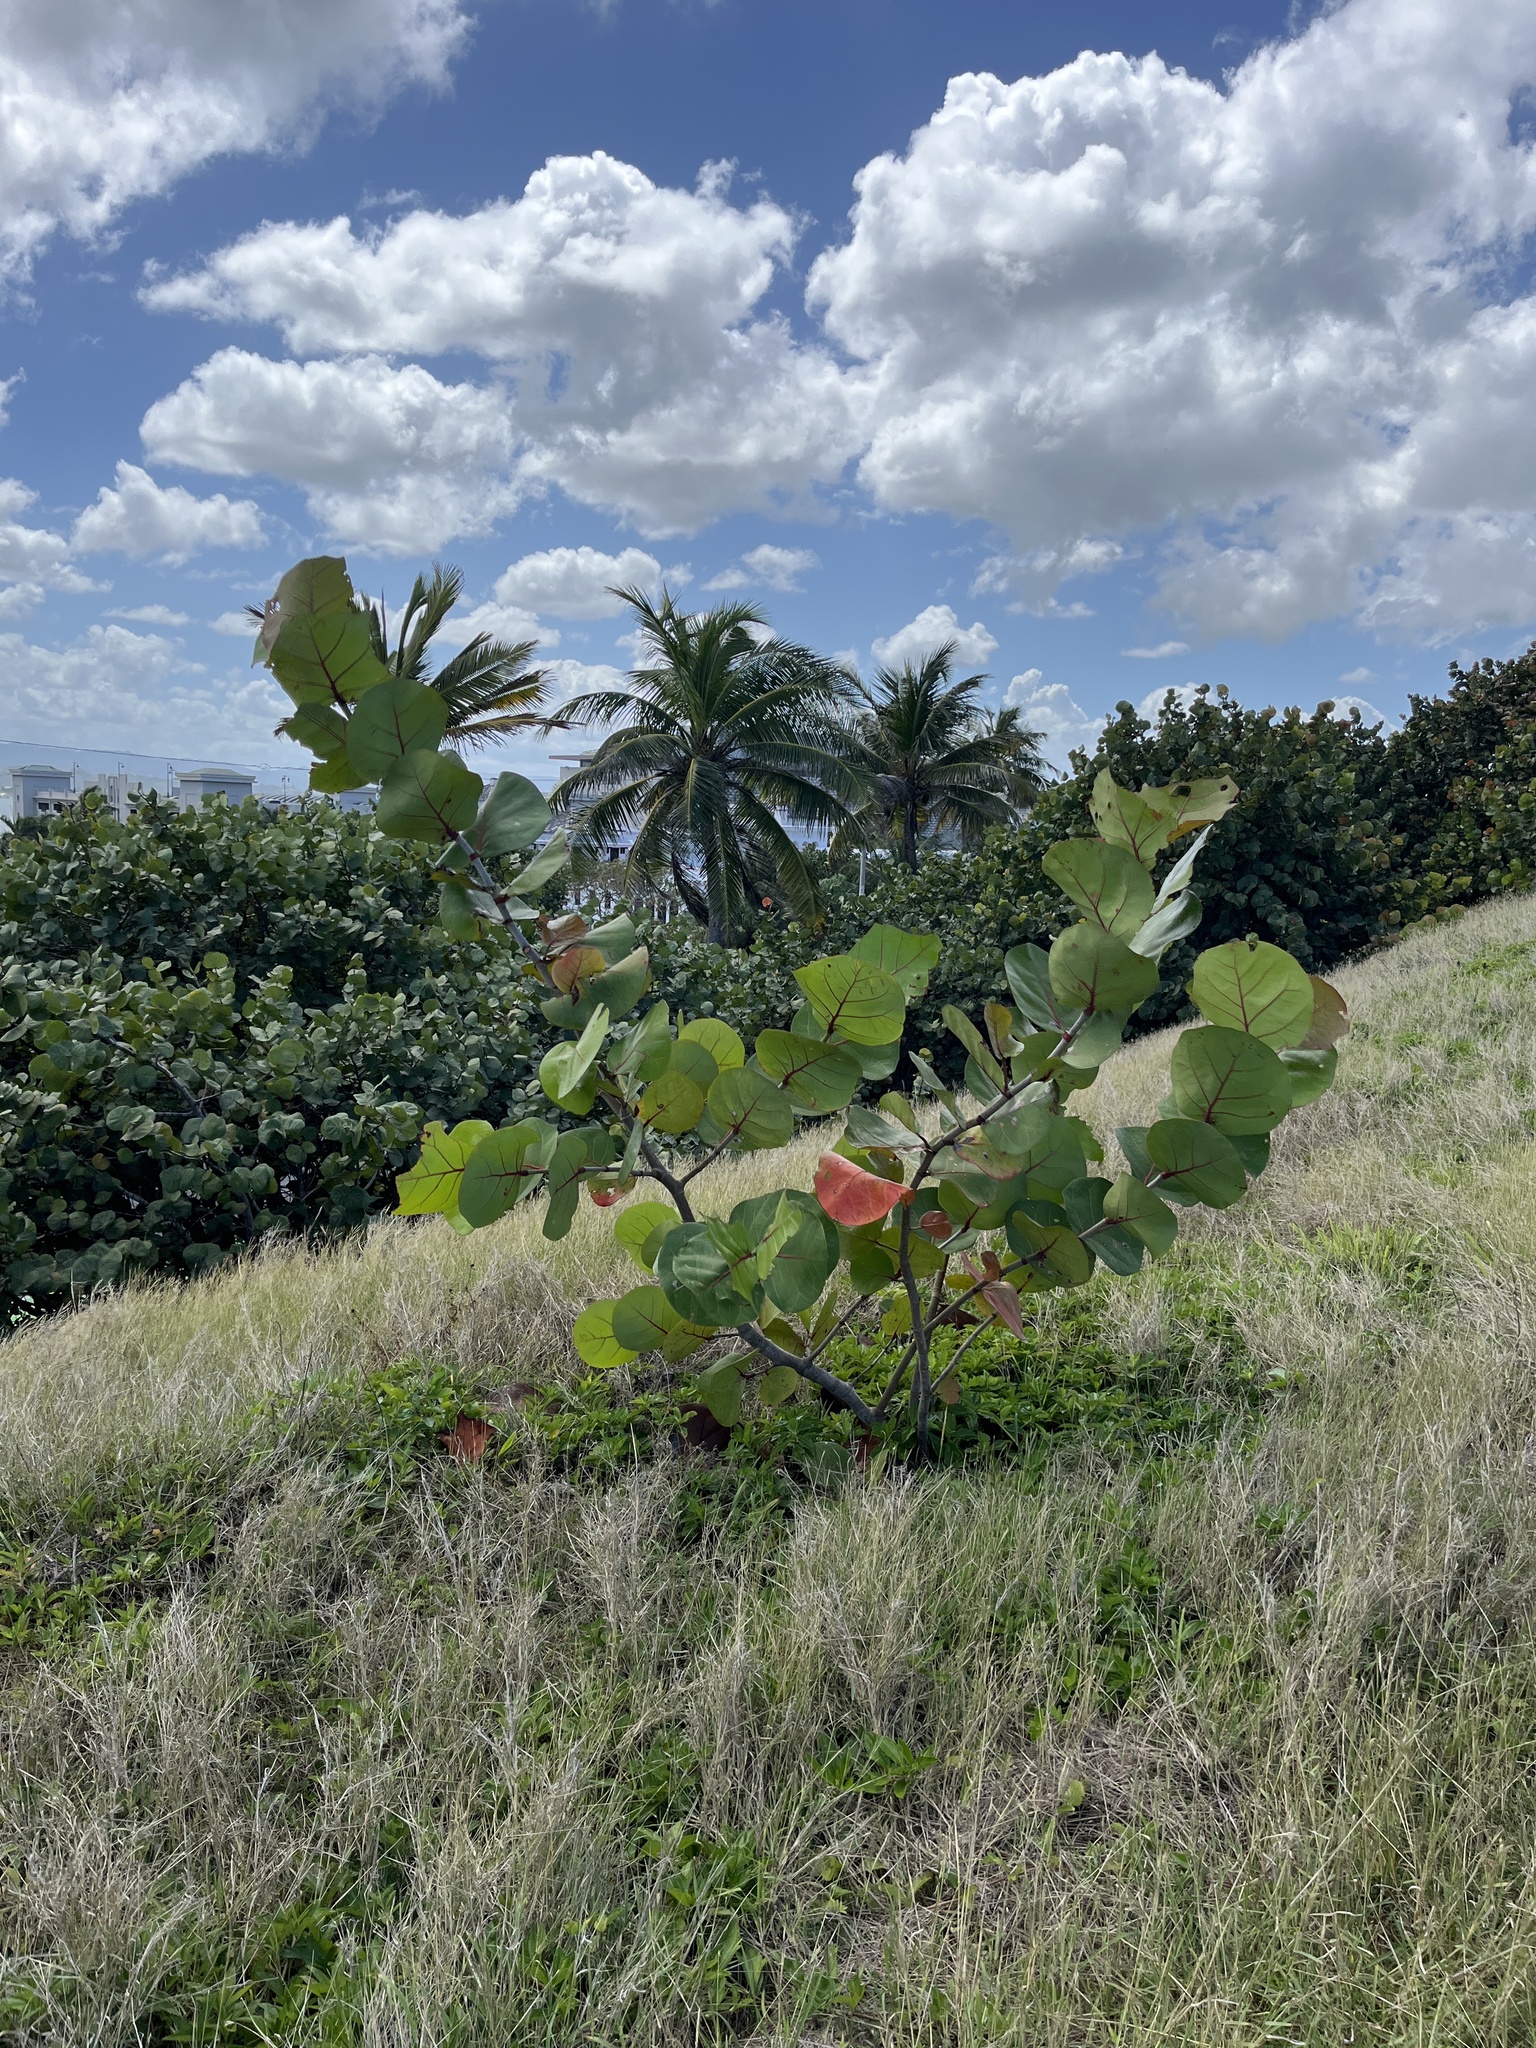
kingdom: Plantae
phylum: Tracheophyta
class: Magnoliopsida
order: Caryophyllales
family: Polygonaceae
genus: Coccoloba
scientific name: Coccoloba uvifera
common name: Seagrape
